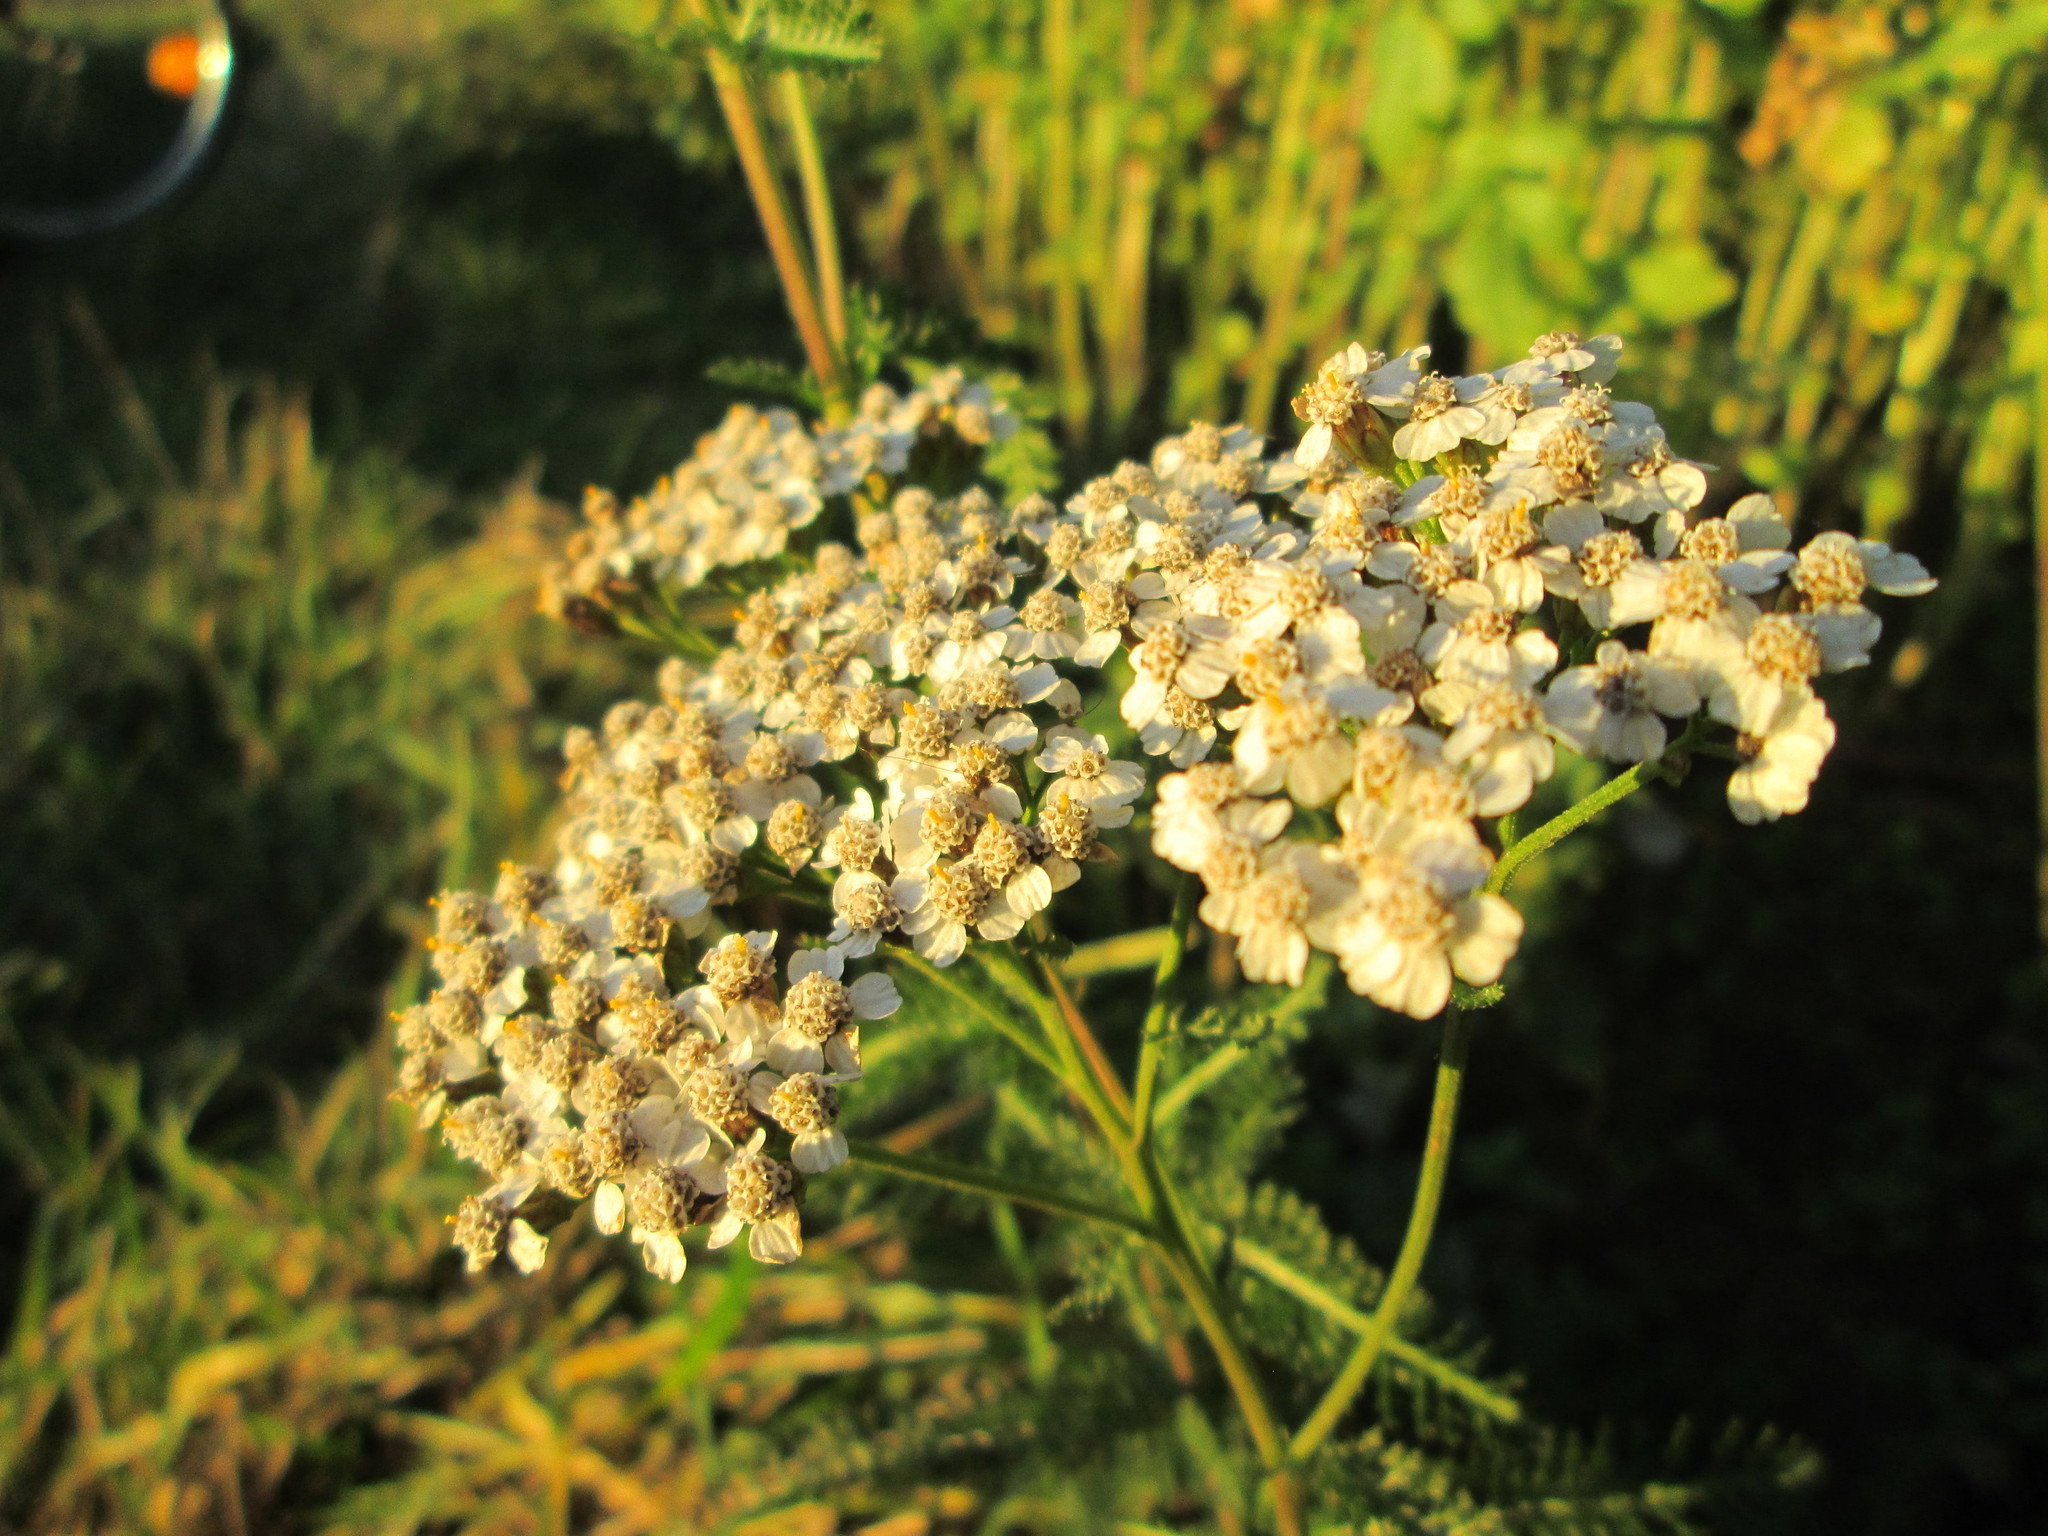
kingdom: Plantae
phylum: Tracheophyta
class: Magnoliopsida
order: Asterales
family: Asteraceae
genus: Achillea
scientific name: Achillea millefolium
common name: Yarrow
